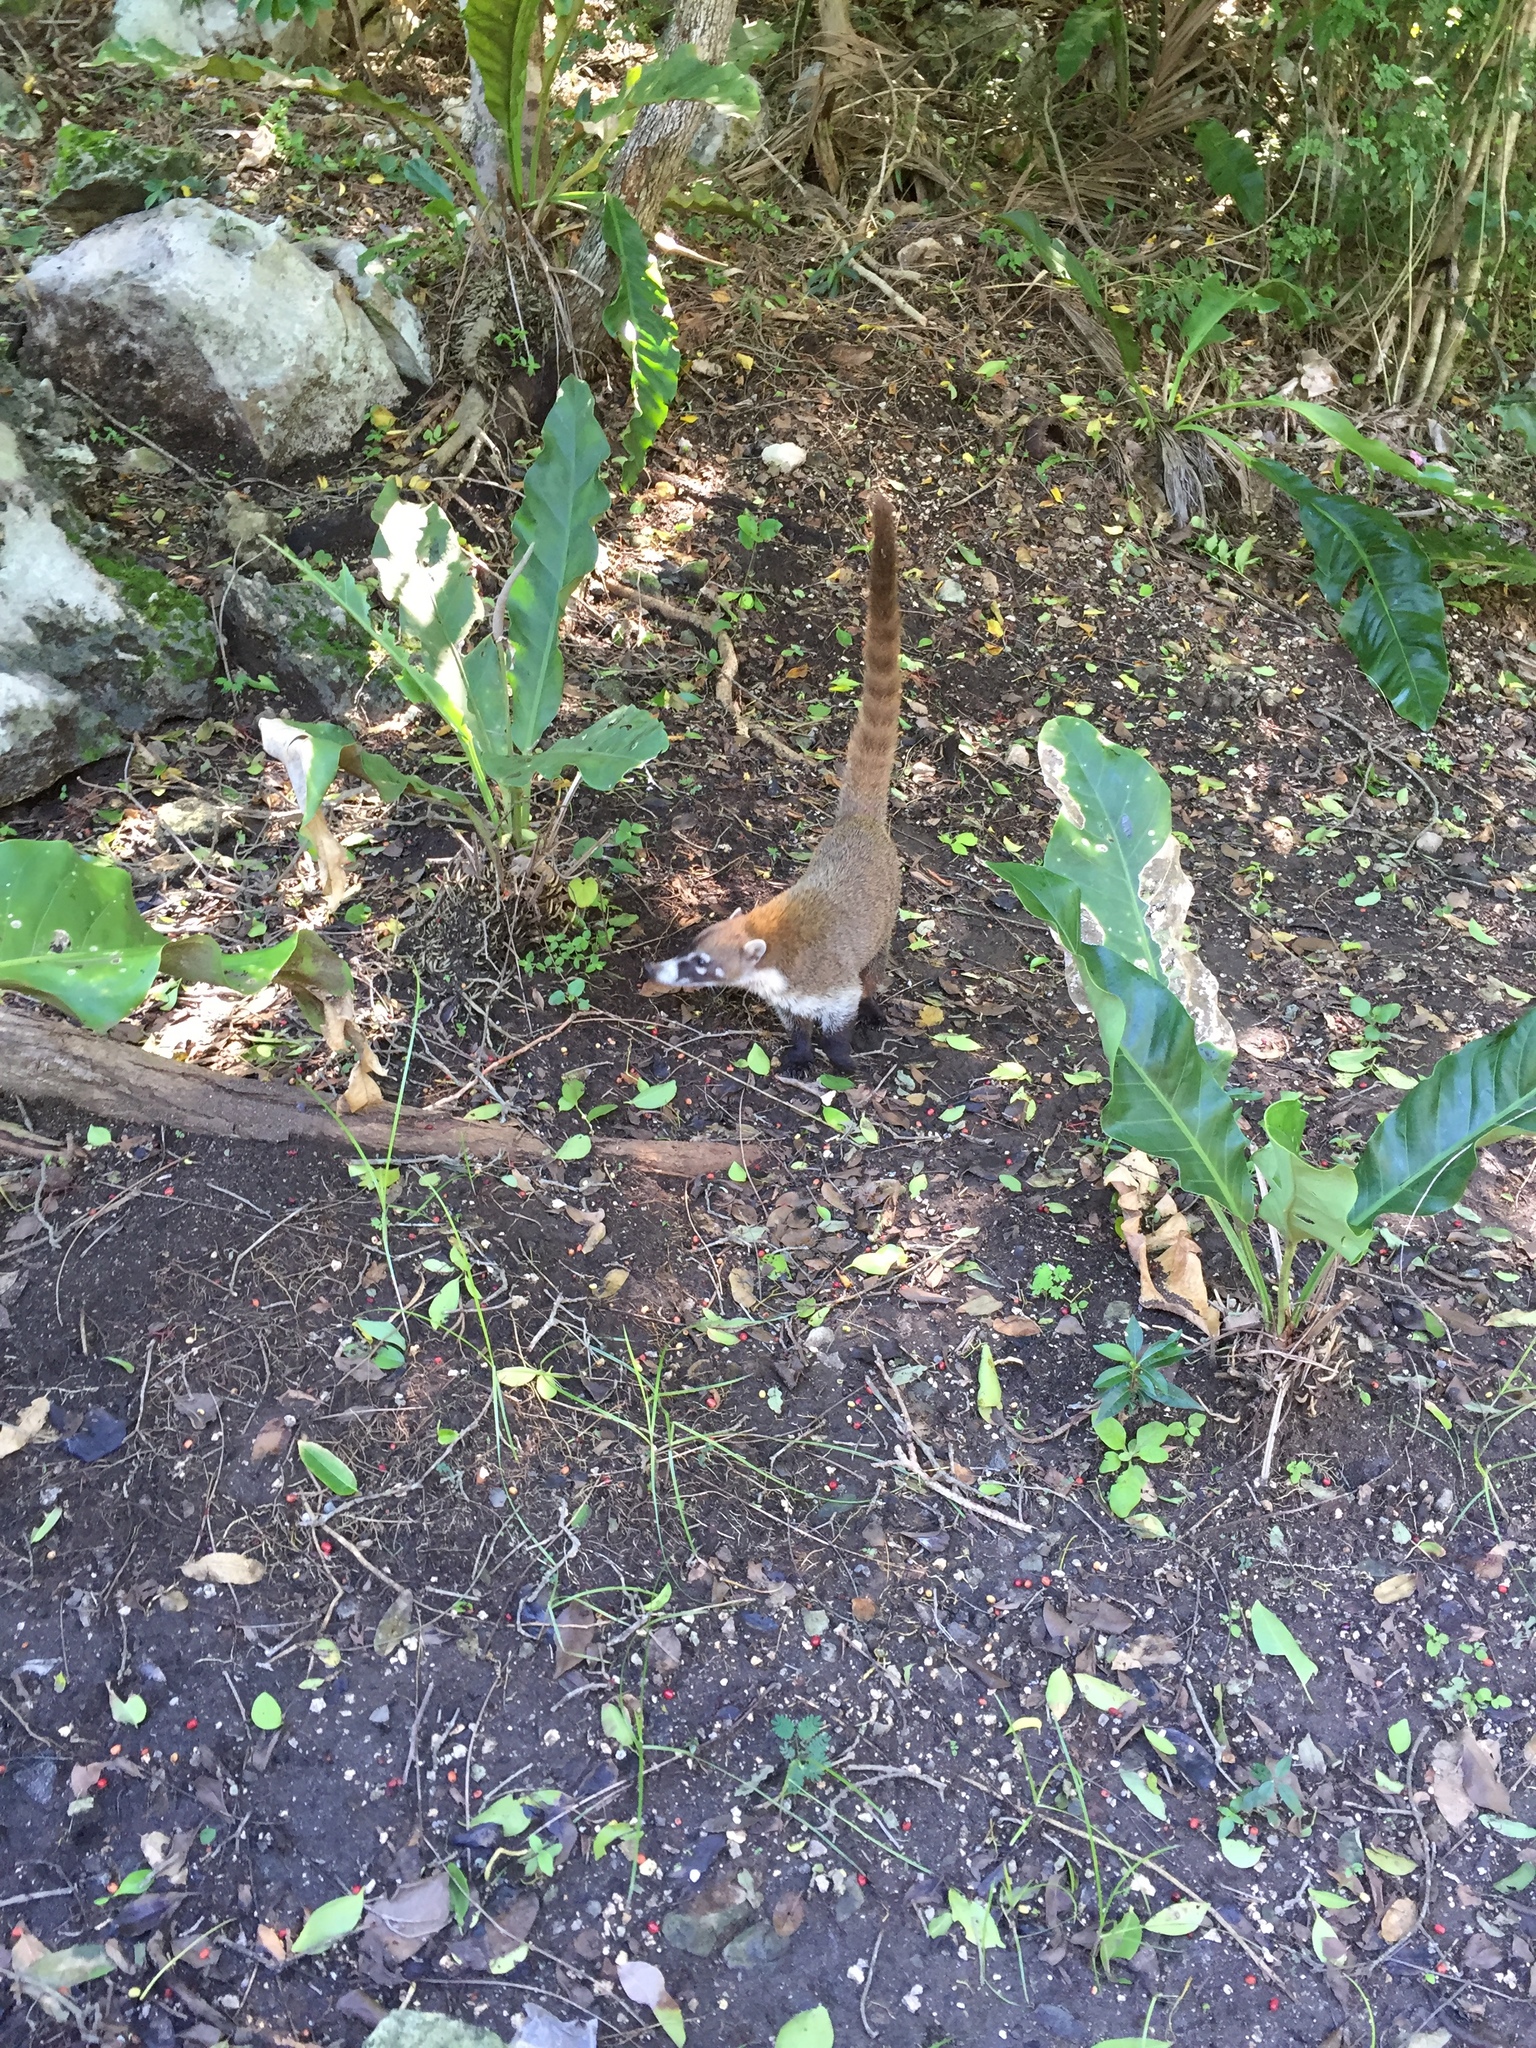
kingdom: Animalia
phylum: Chordata
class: Mammalia
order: Carnivora
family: Procyonidae
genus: Nasua
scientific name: Nasua narica
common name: White-nosed coati
